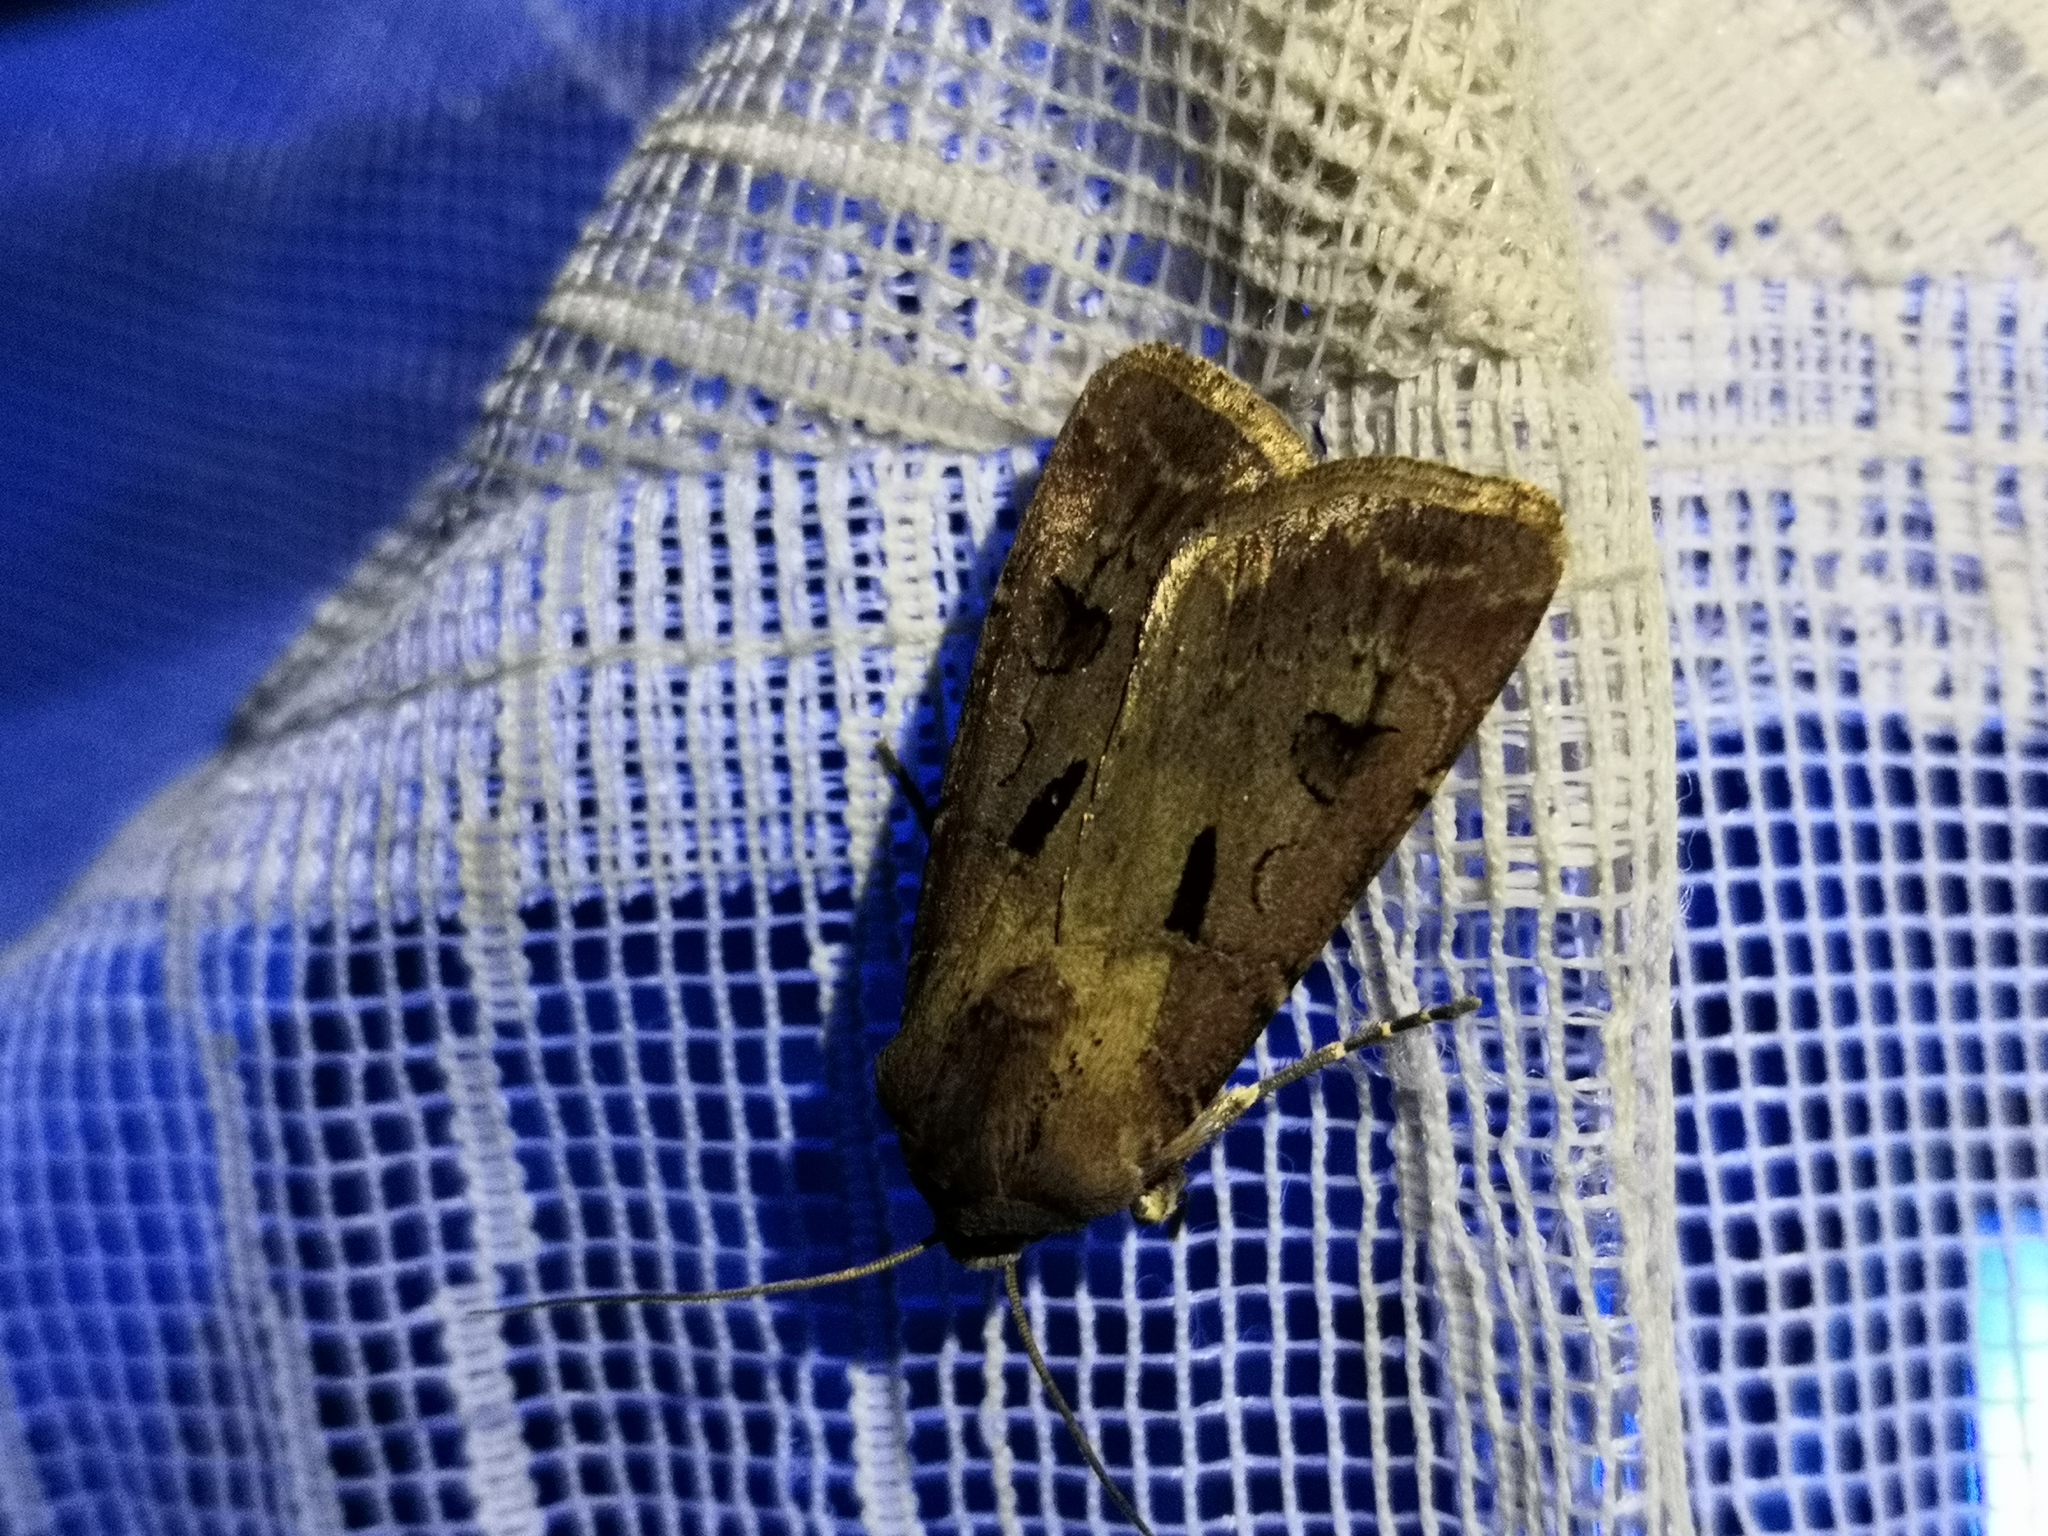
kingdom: Animalia
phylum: Arthropoda
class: Insecta
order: Lepidoptera
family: Noctuidae
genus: Agrotis
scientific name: Agrotis exclamationis
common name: Heart and dart
